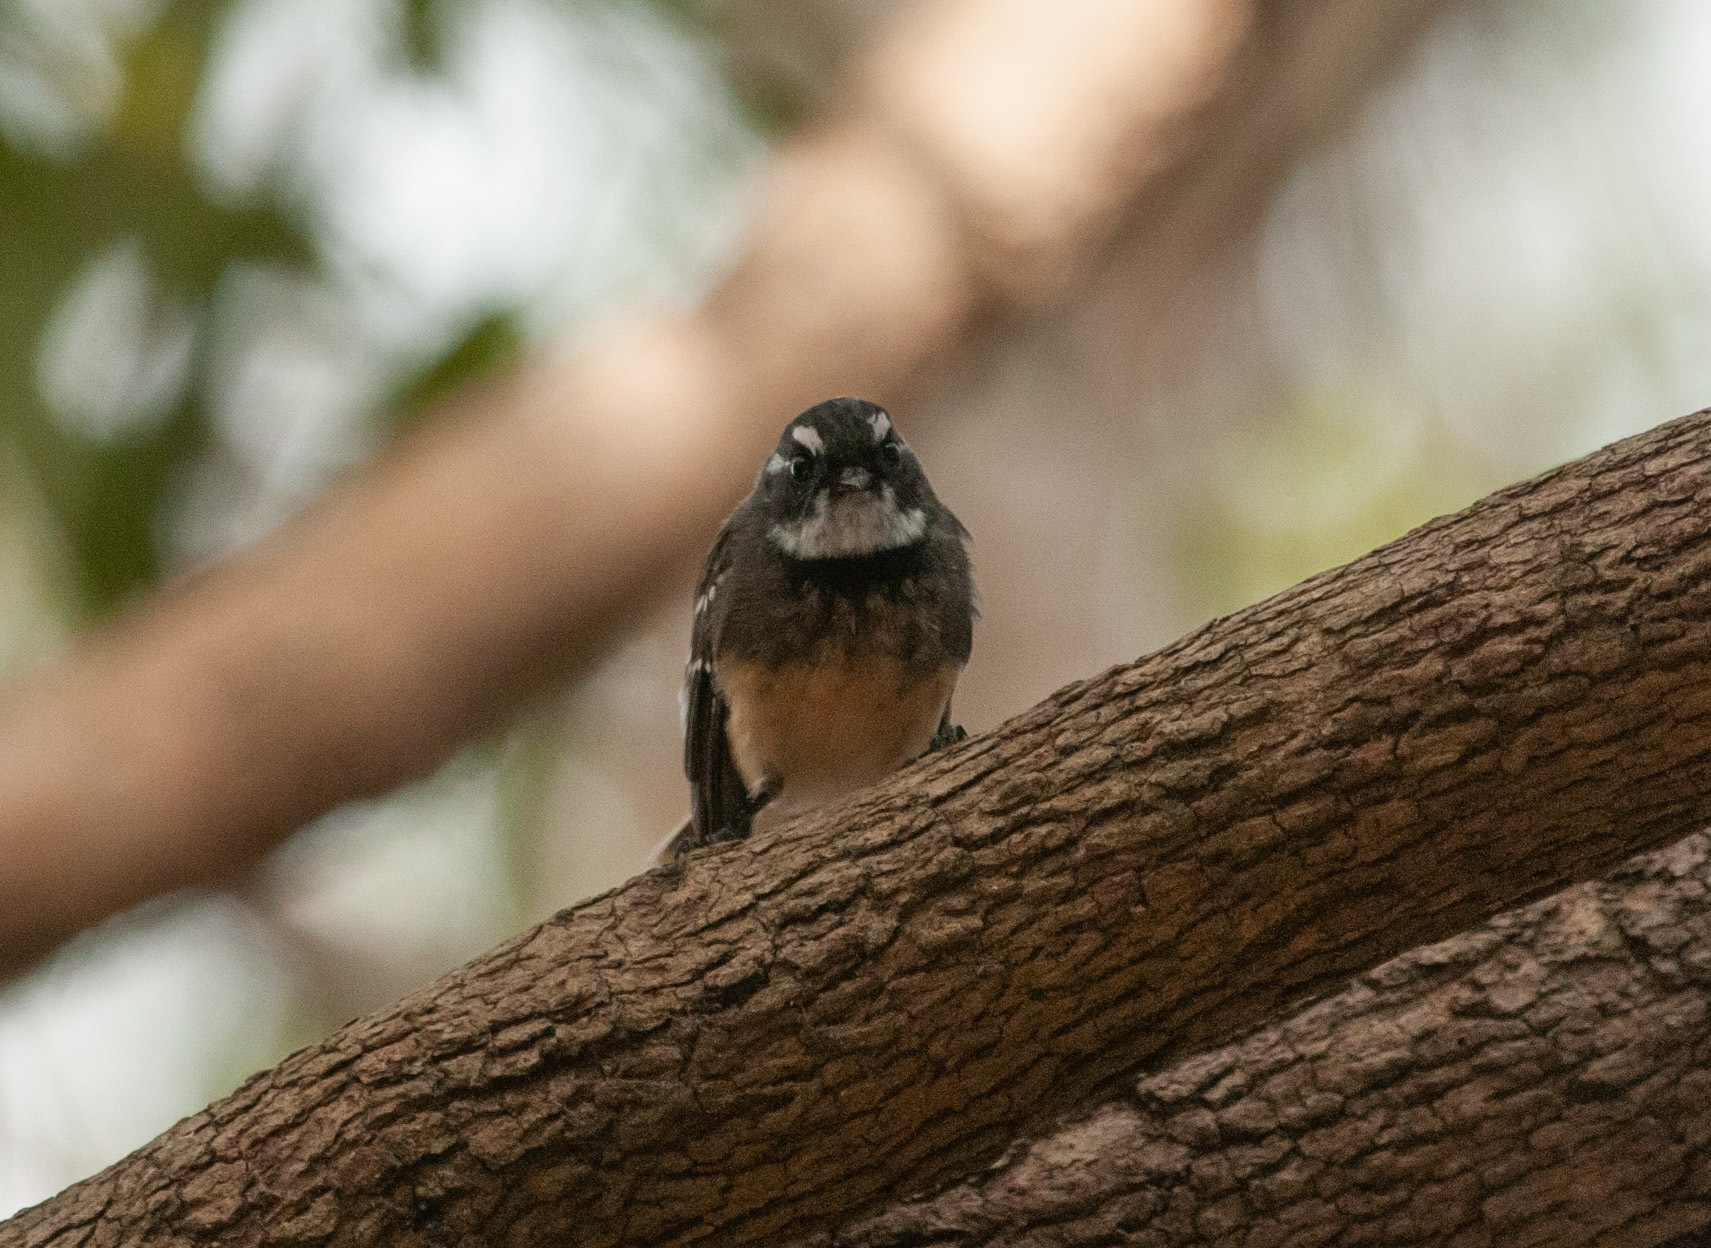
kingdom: Animalia
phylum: Chordata
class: Aves
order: Passeriformes
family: Rhipiduridae
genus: Rhipidura
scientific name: Rhipidura albiscapa
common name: Grey fantail
